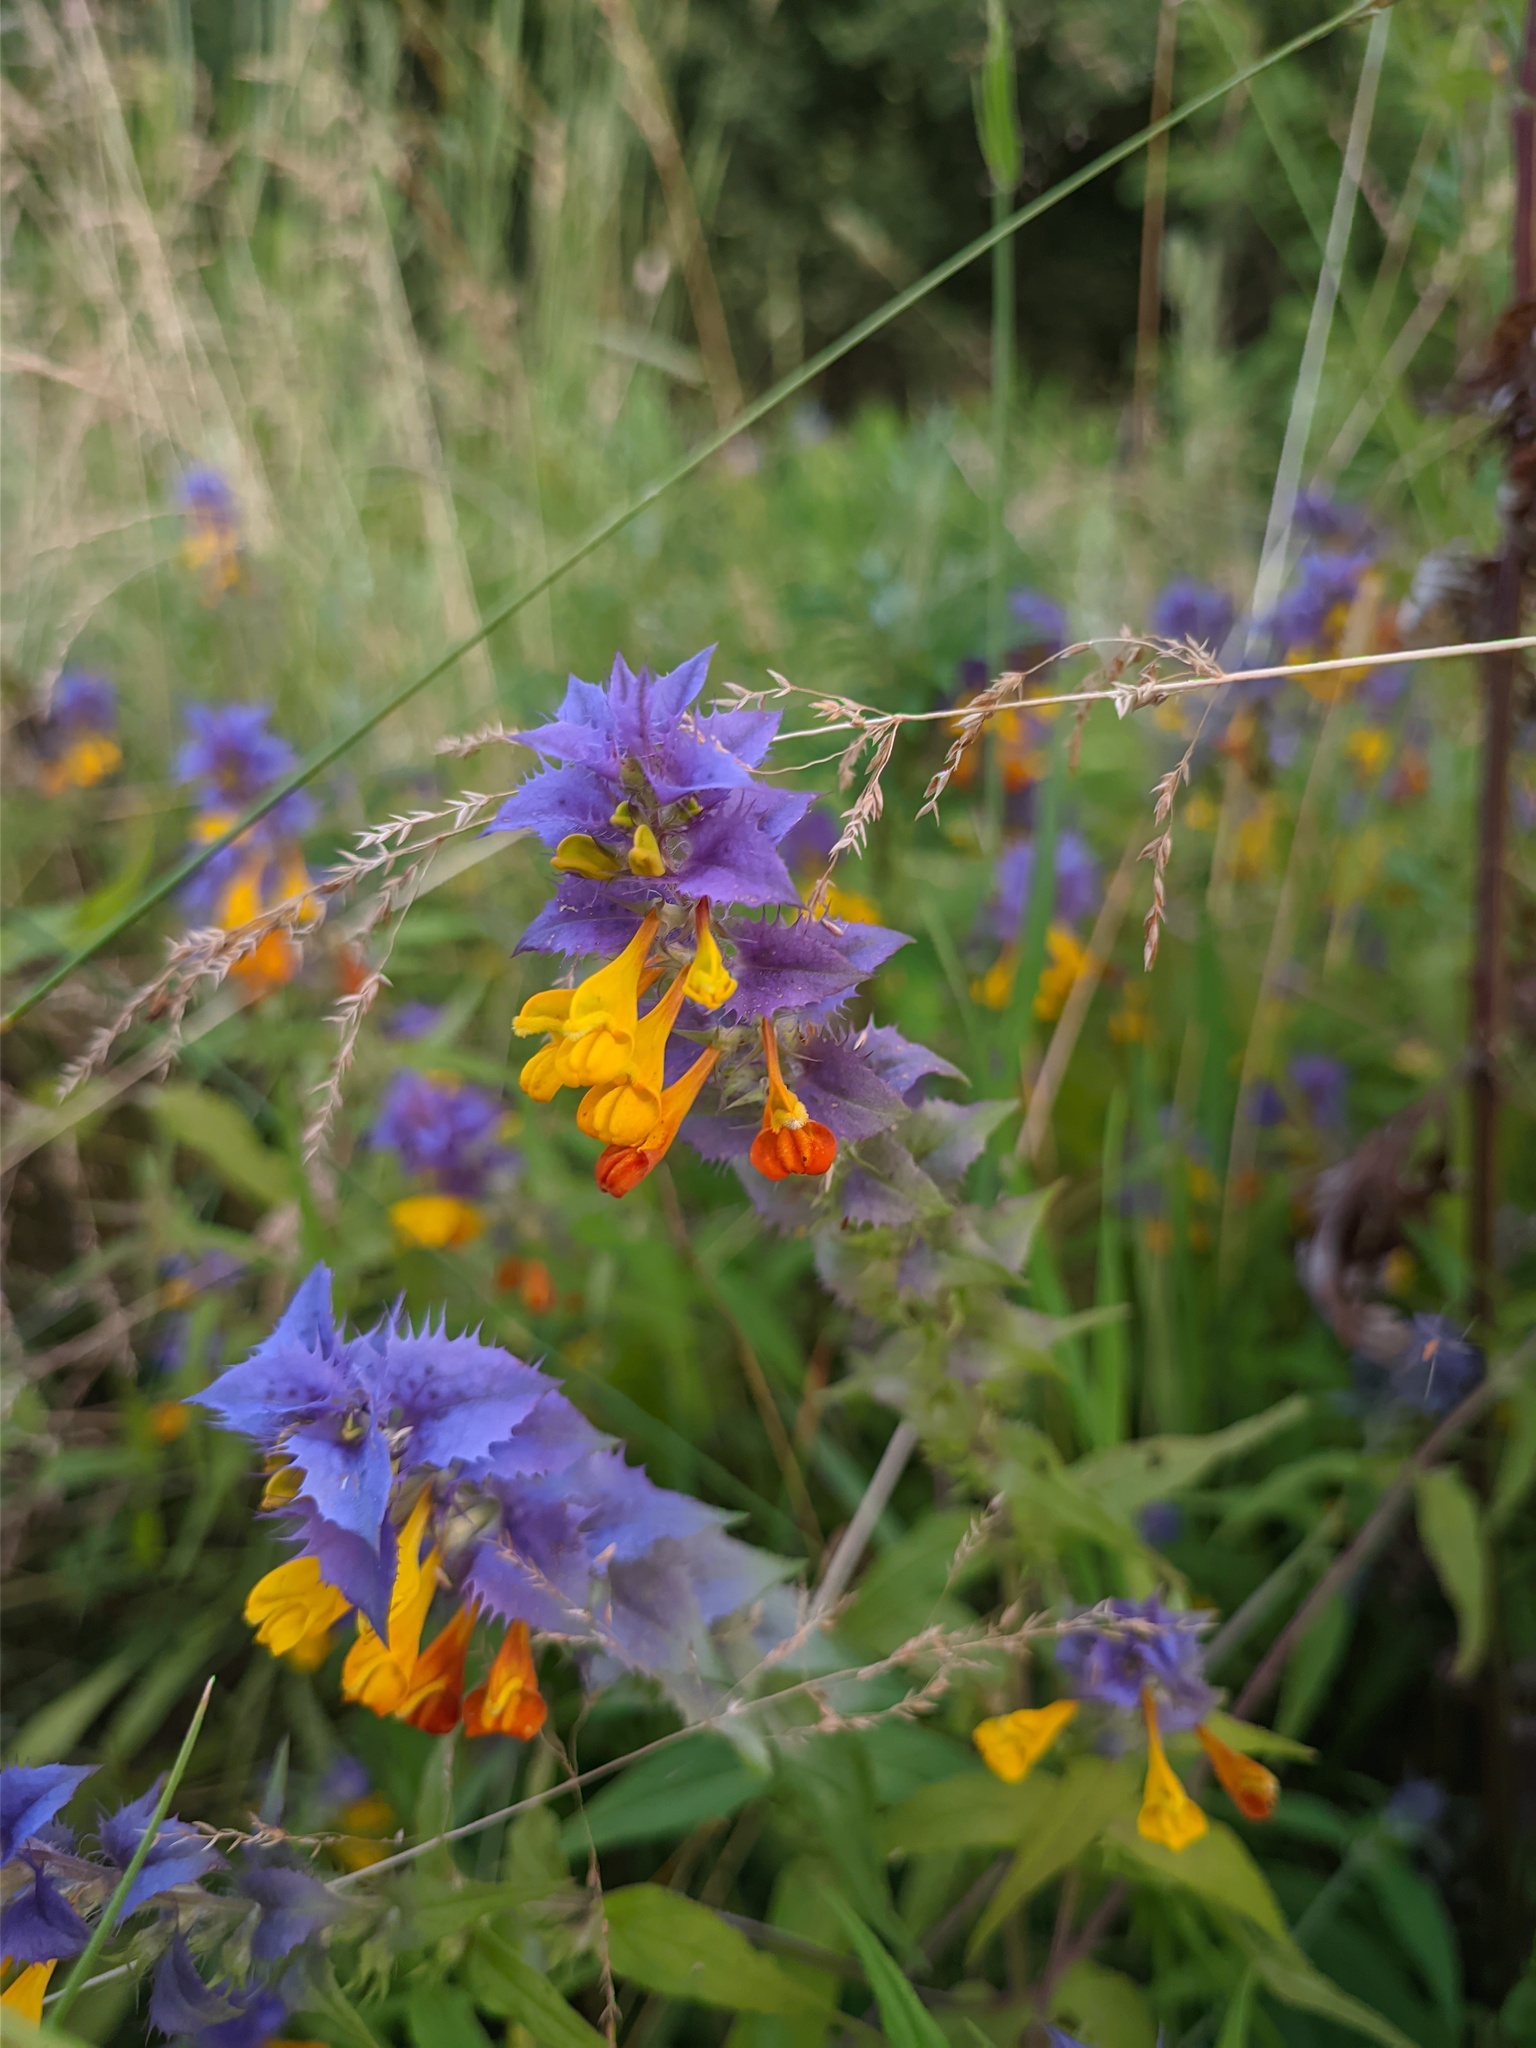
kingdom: Plantae
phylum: Tracheophyta
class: Magnoliopsida
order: Lamiales
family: Orobanchaceae
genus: Melampyrum
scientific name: Melampyrum nemorosum
